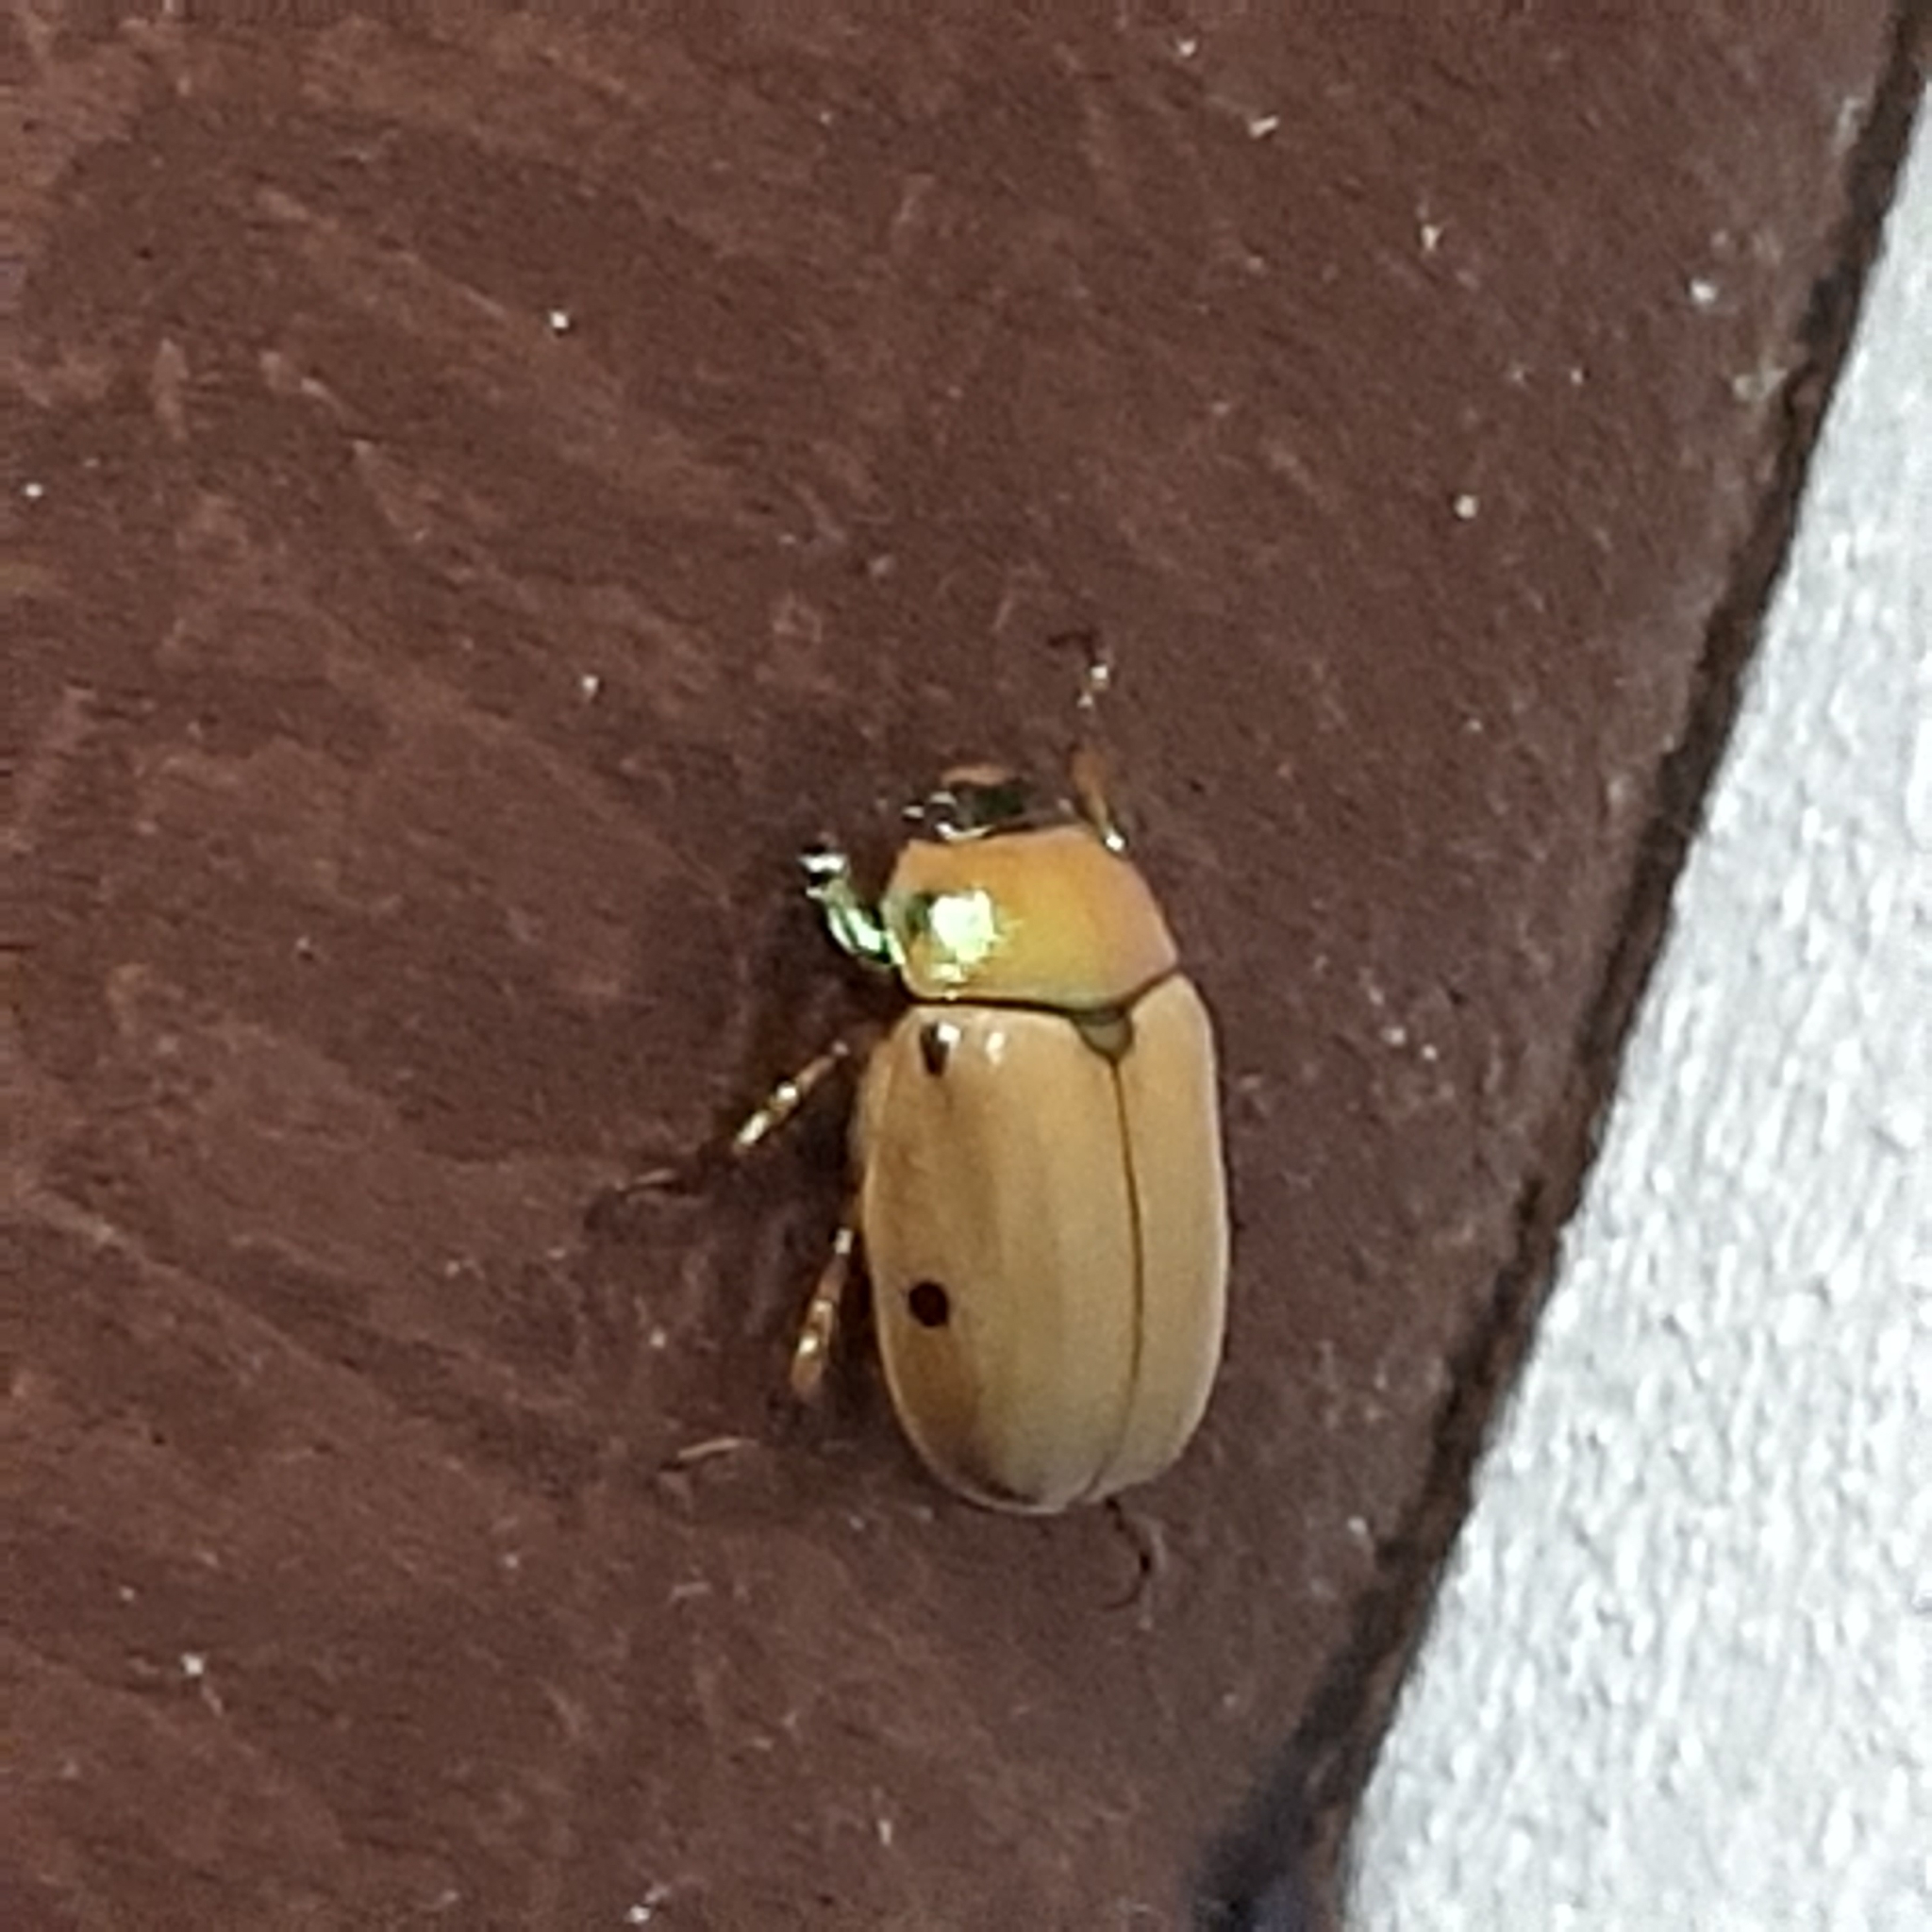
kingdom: Animalia
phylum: Arthropoda
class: Insecta
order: Coleoptera
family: Scarabaeidae
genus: Pelidnota
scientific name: Pelidnota costaricensis
